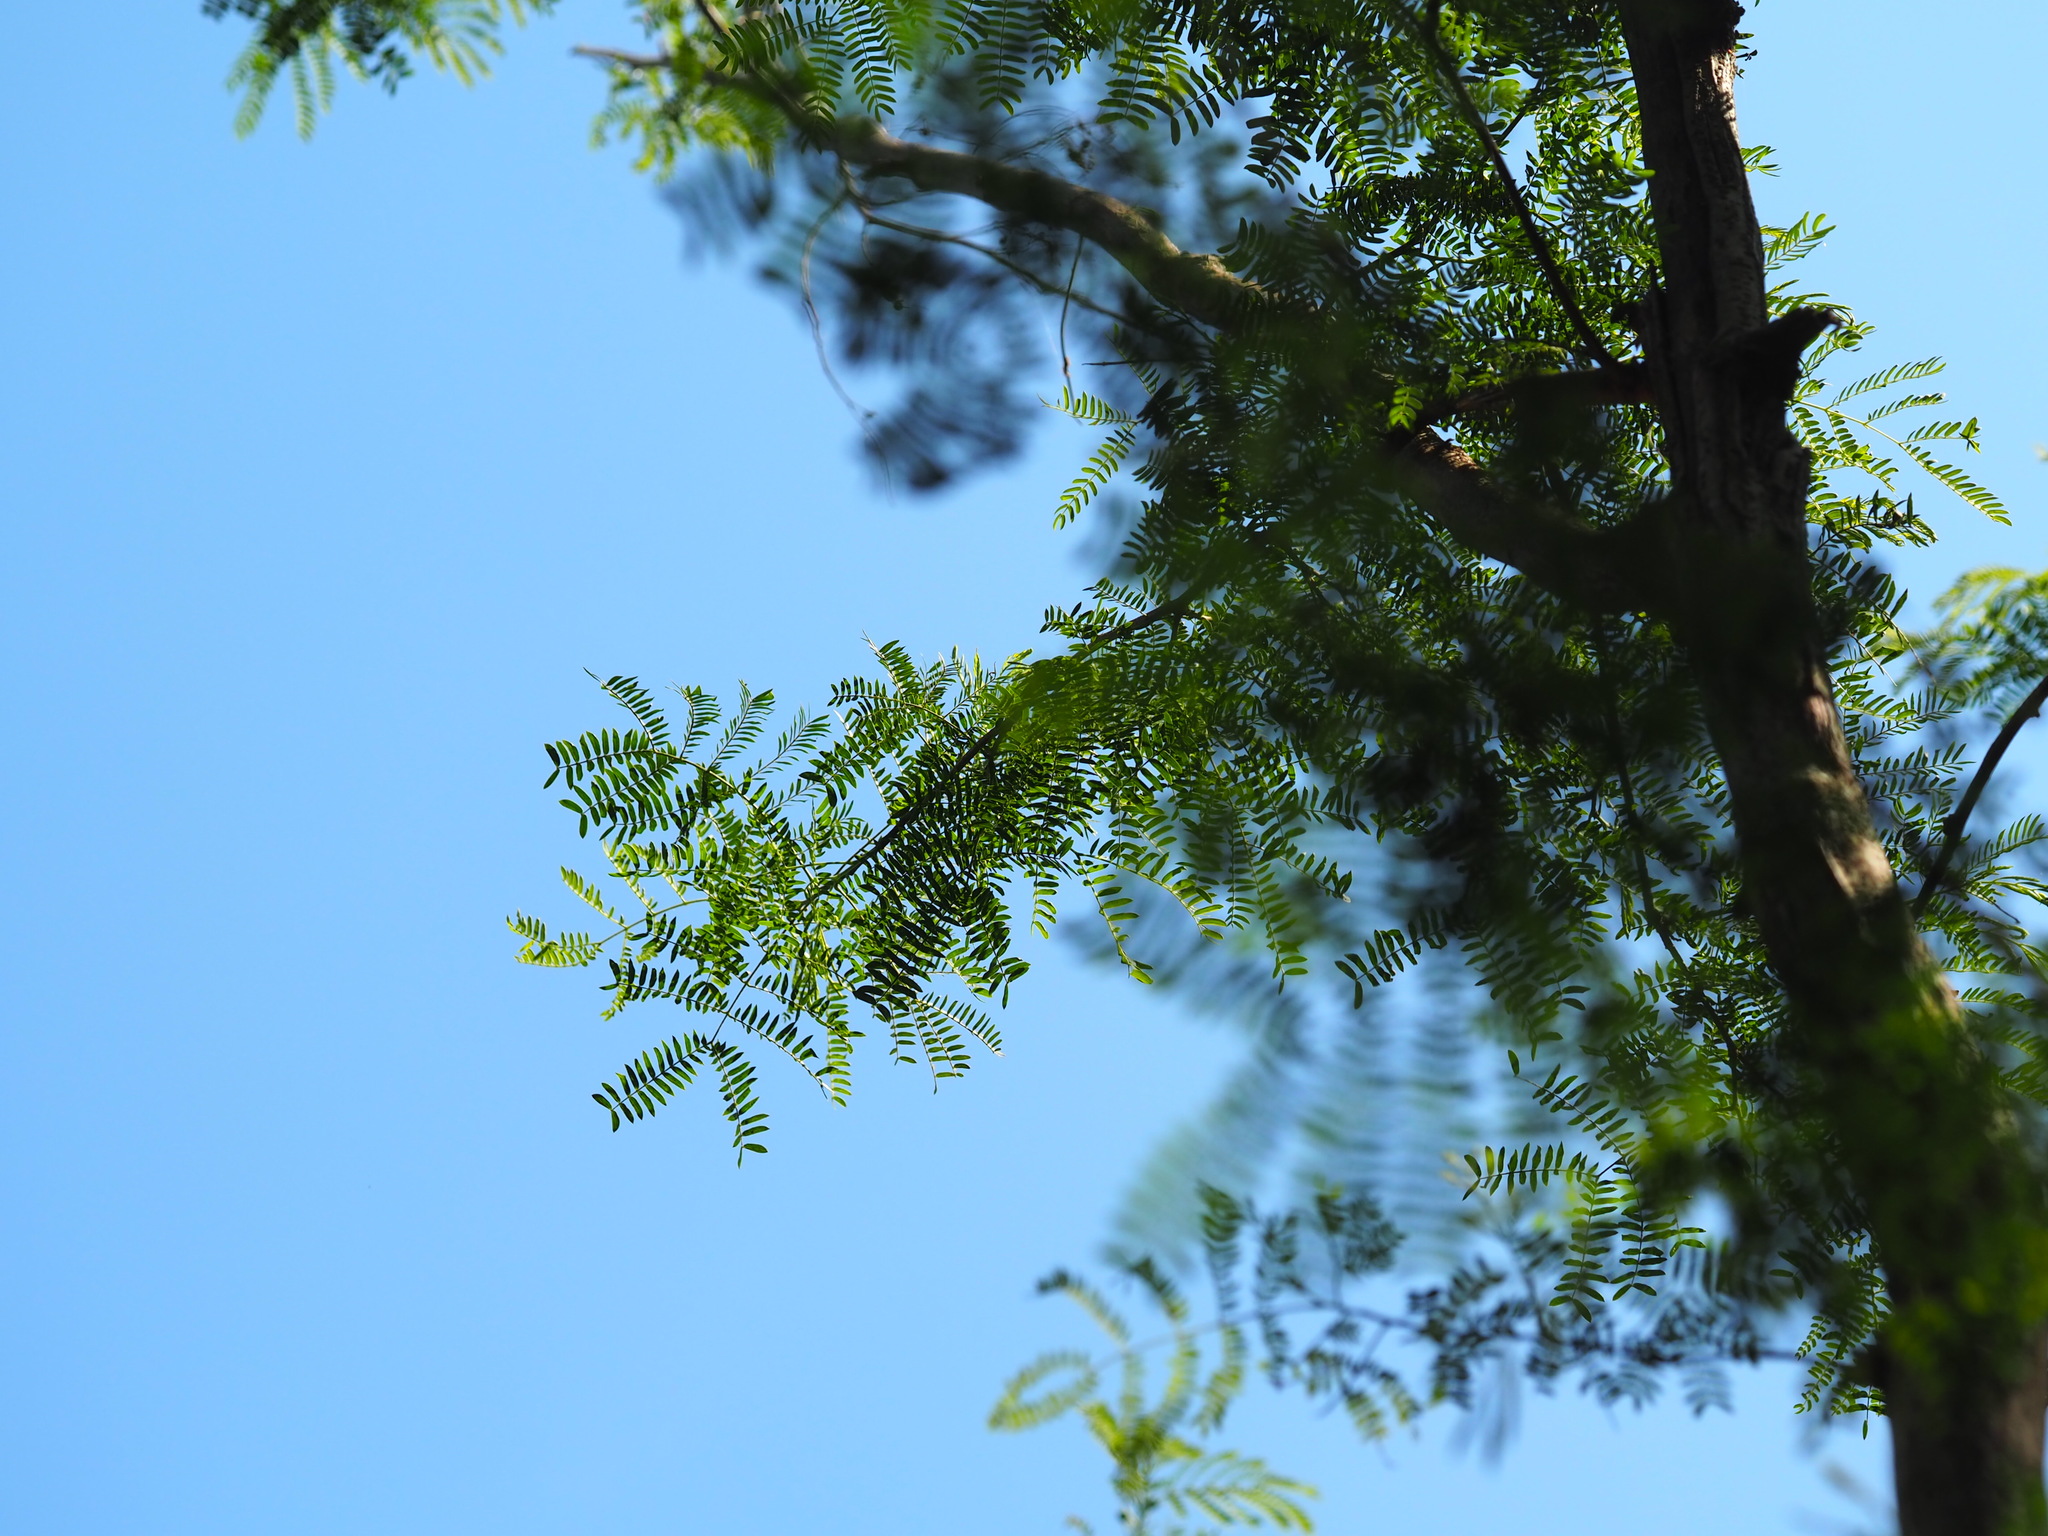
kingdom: Plantae
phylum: Tracheophyta
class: Magnoliopsida
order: Fabales
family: Fabaceae
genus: Leucaena
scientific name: Leucaena leucocephala
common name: White leadtree
